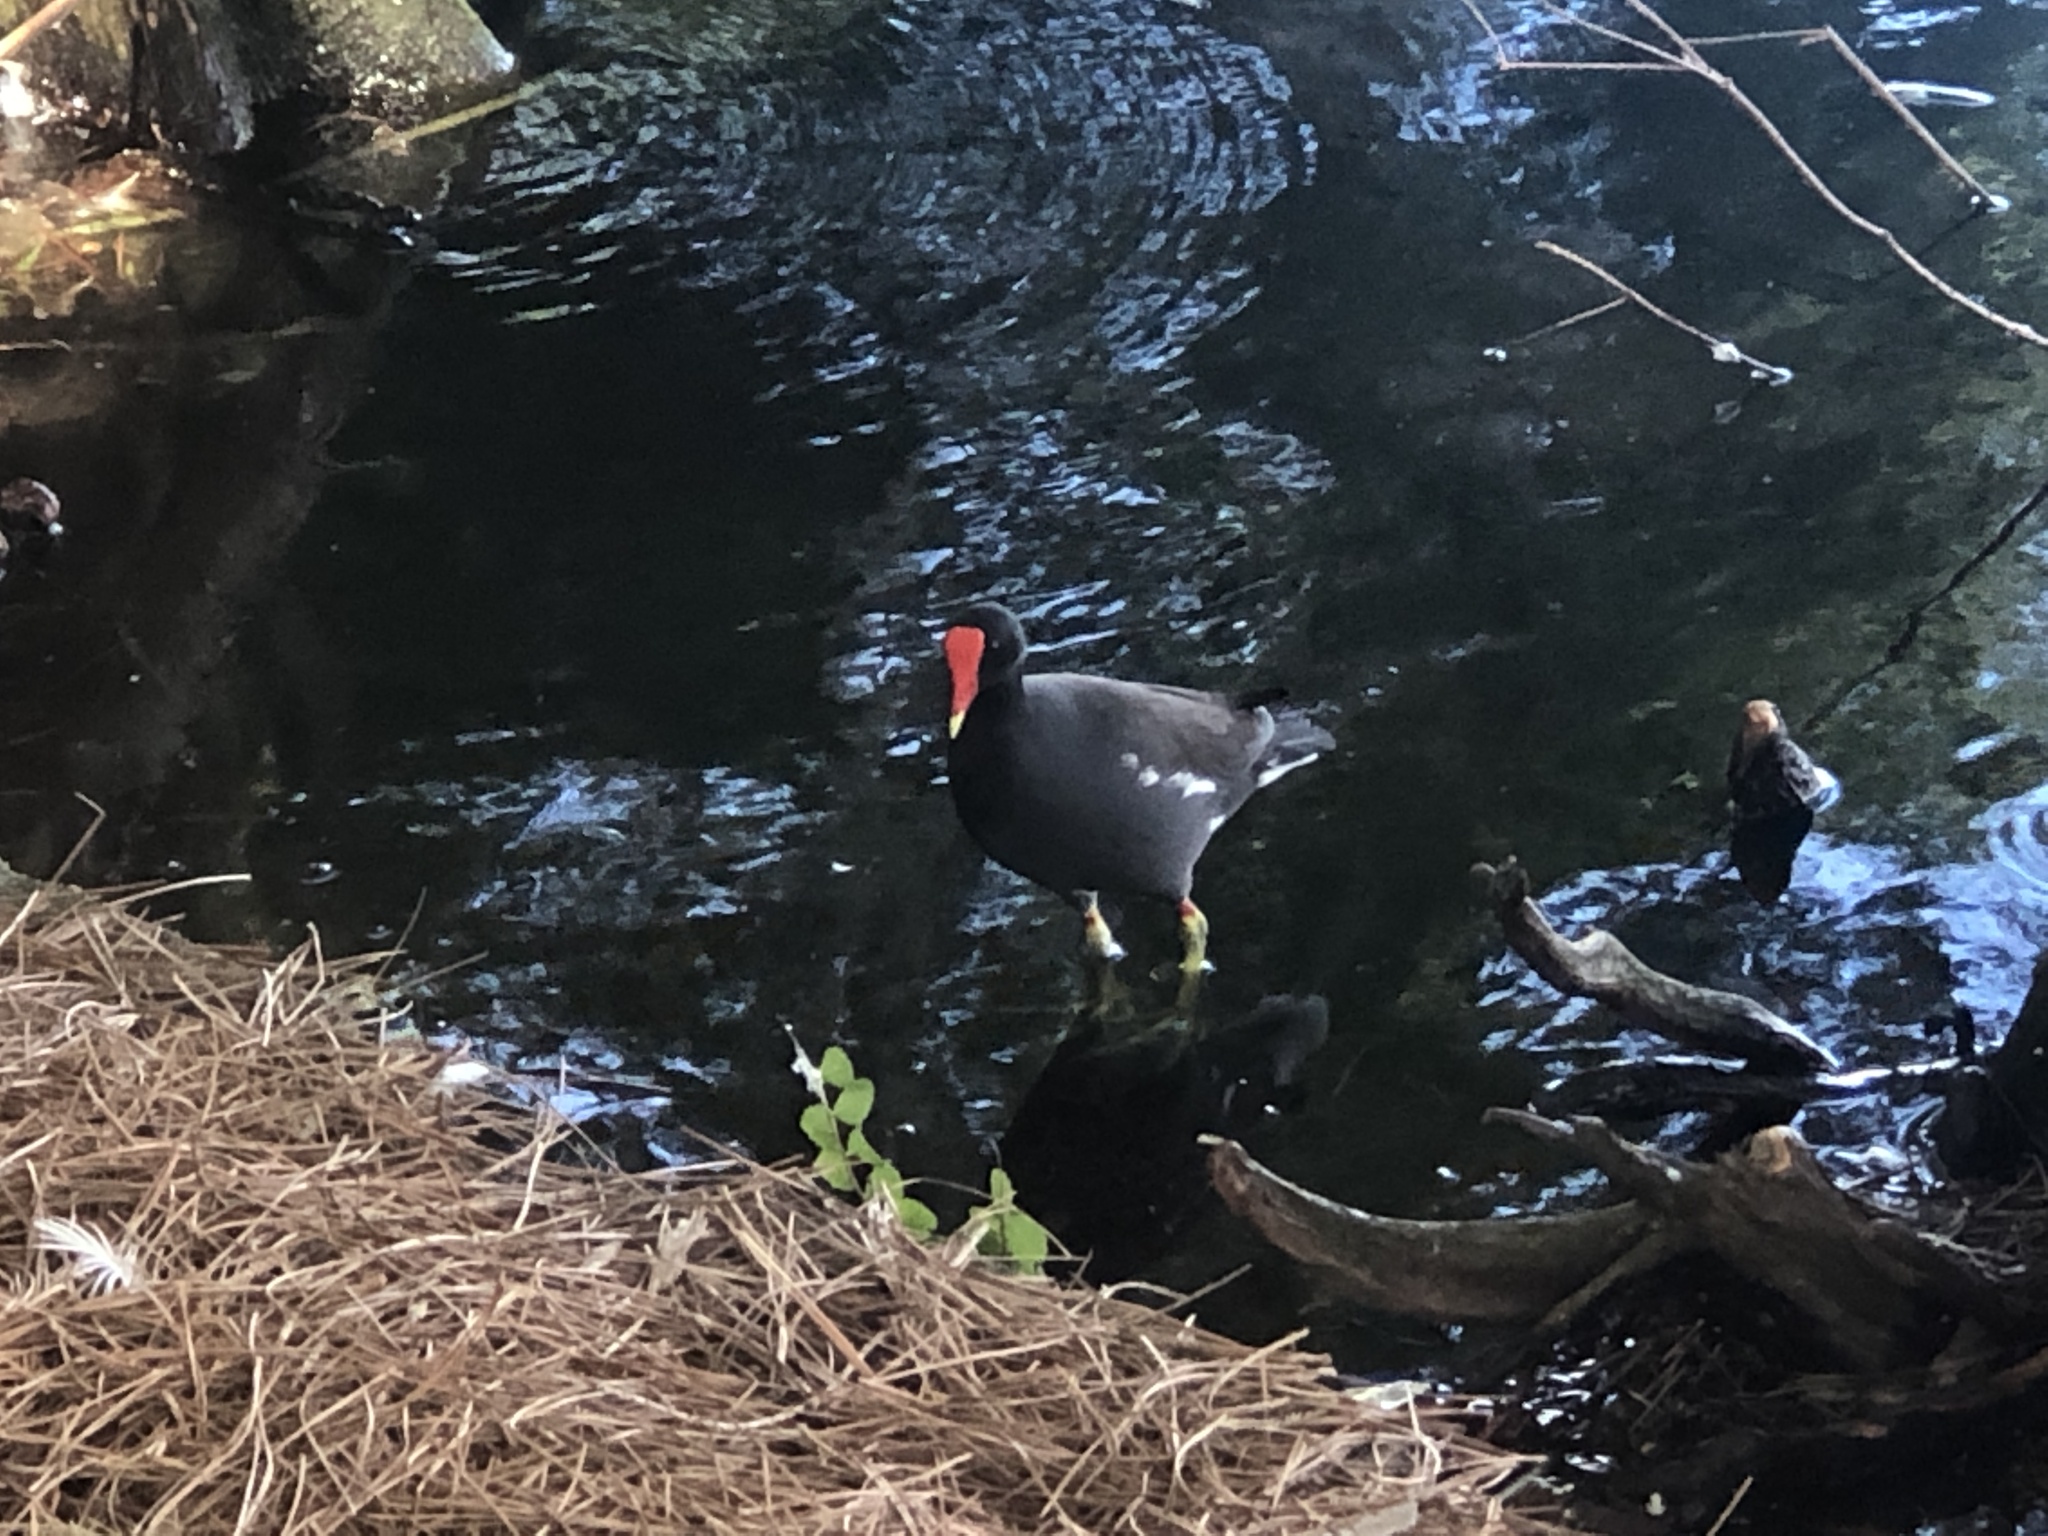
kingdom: Animalia
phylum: Chordata
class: Aves
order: Gruiformes
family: Rallidae
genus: Gallinula
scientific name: Gallinula chloropus
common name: Common moorhen
